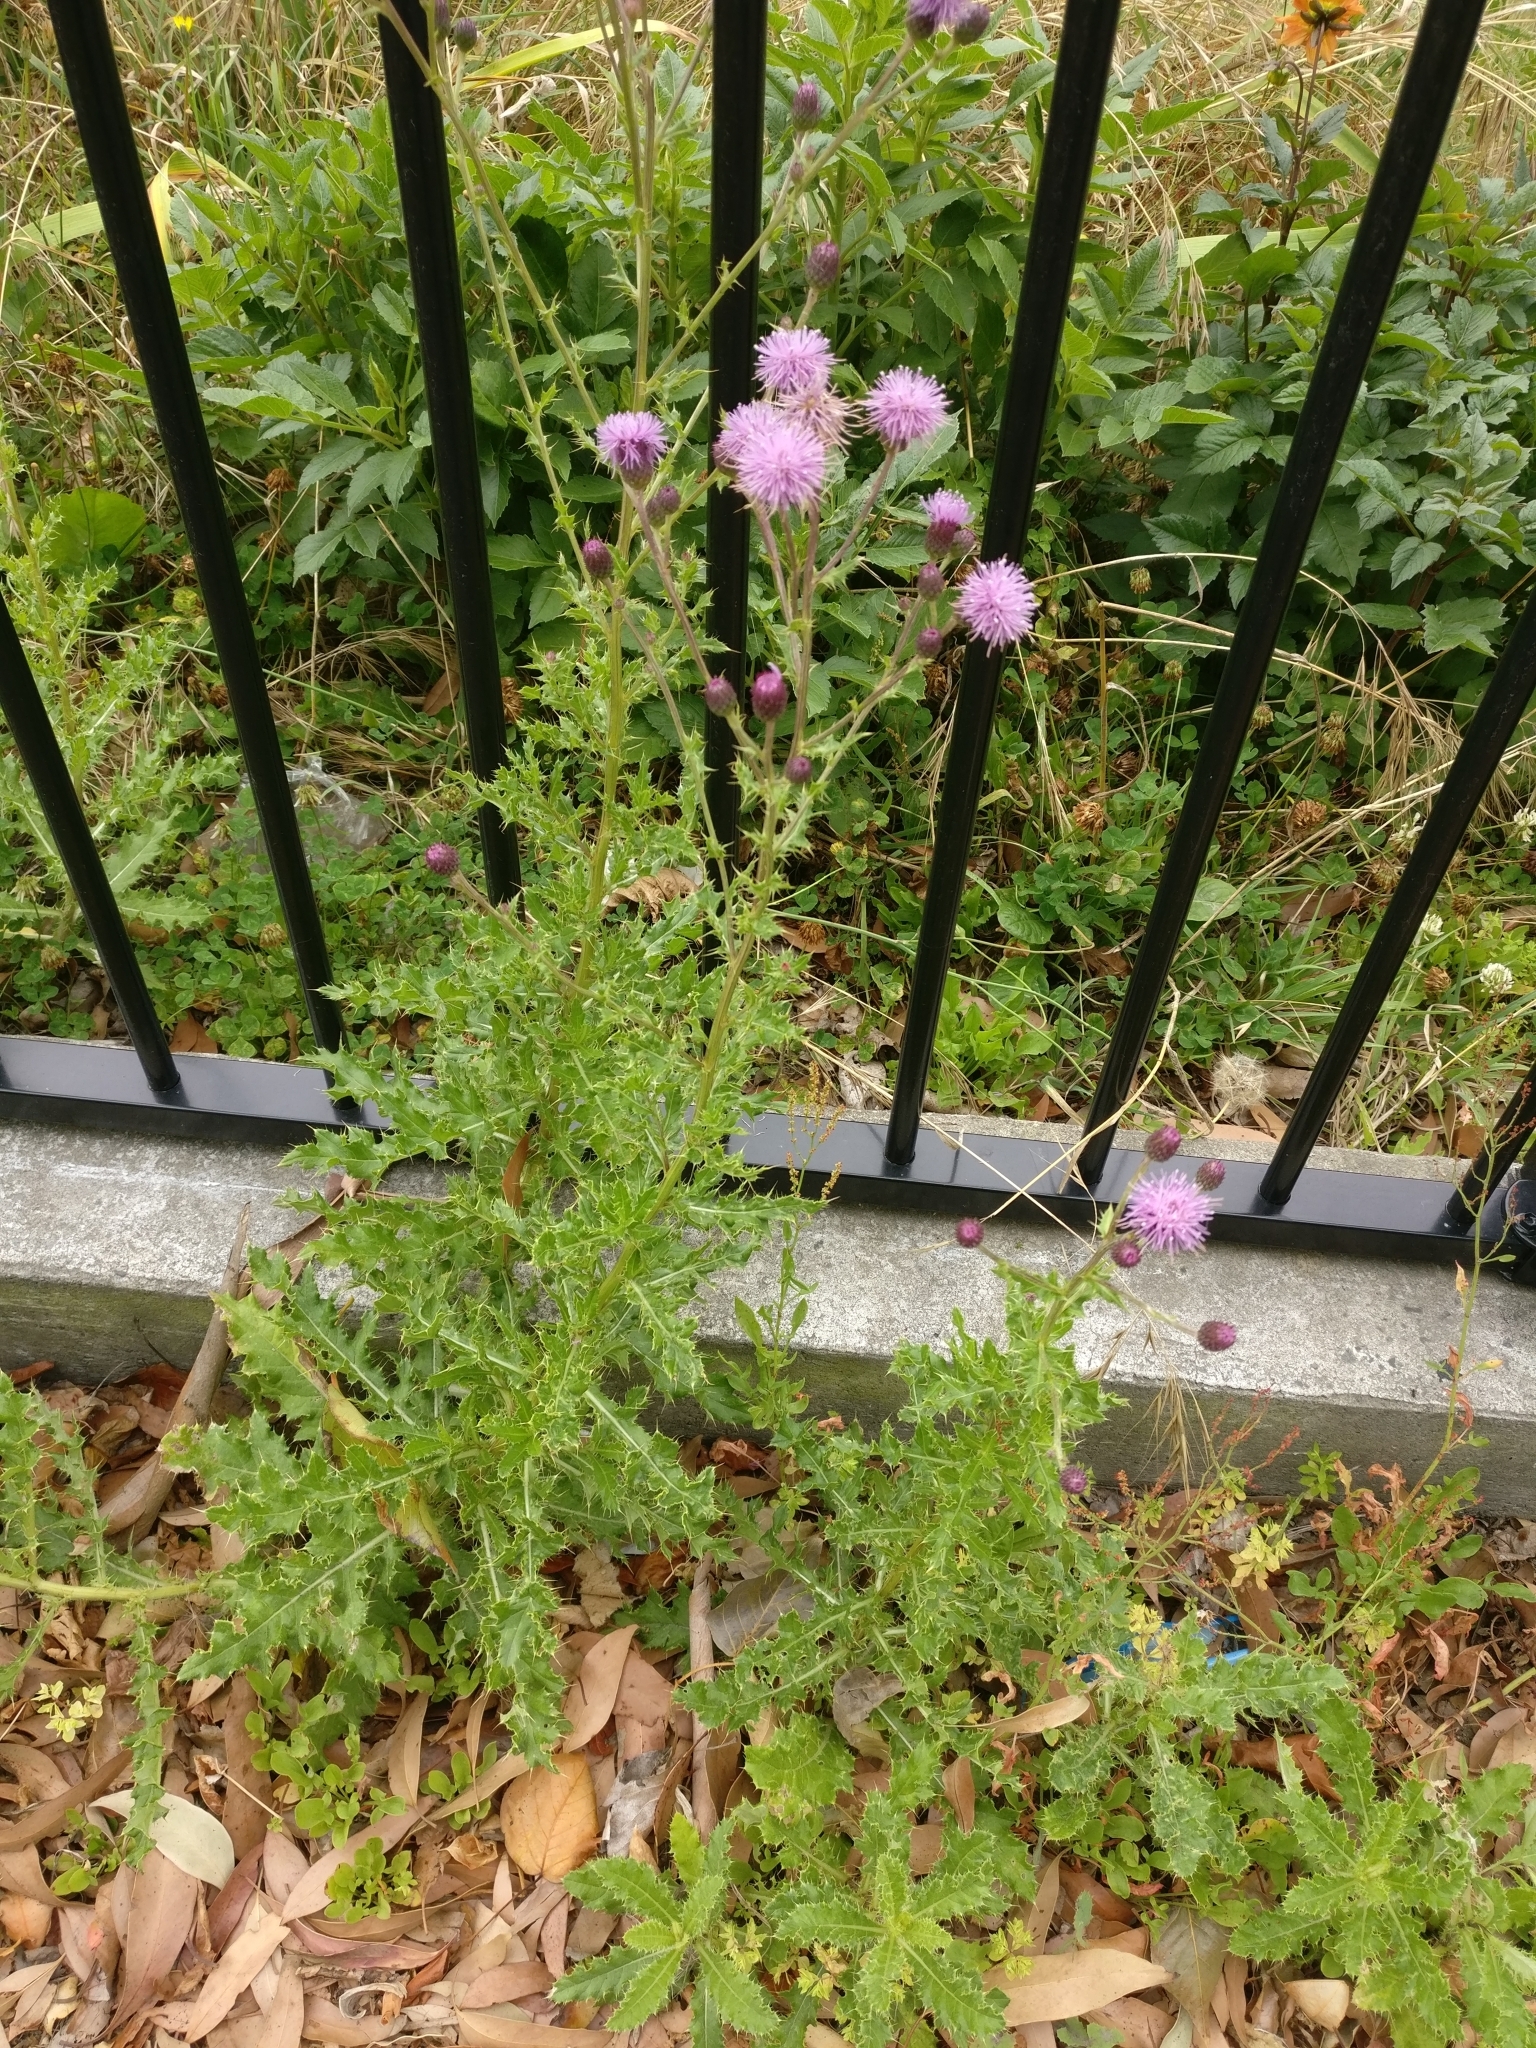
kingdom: Plantae
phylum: Tracheophyta
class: Magnoliopsida
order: Asterales
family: Asteraceae
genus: Cirsium
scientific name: Cirsium arvense
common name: Creeping thistle
